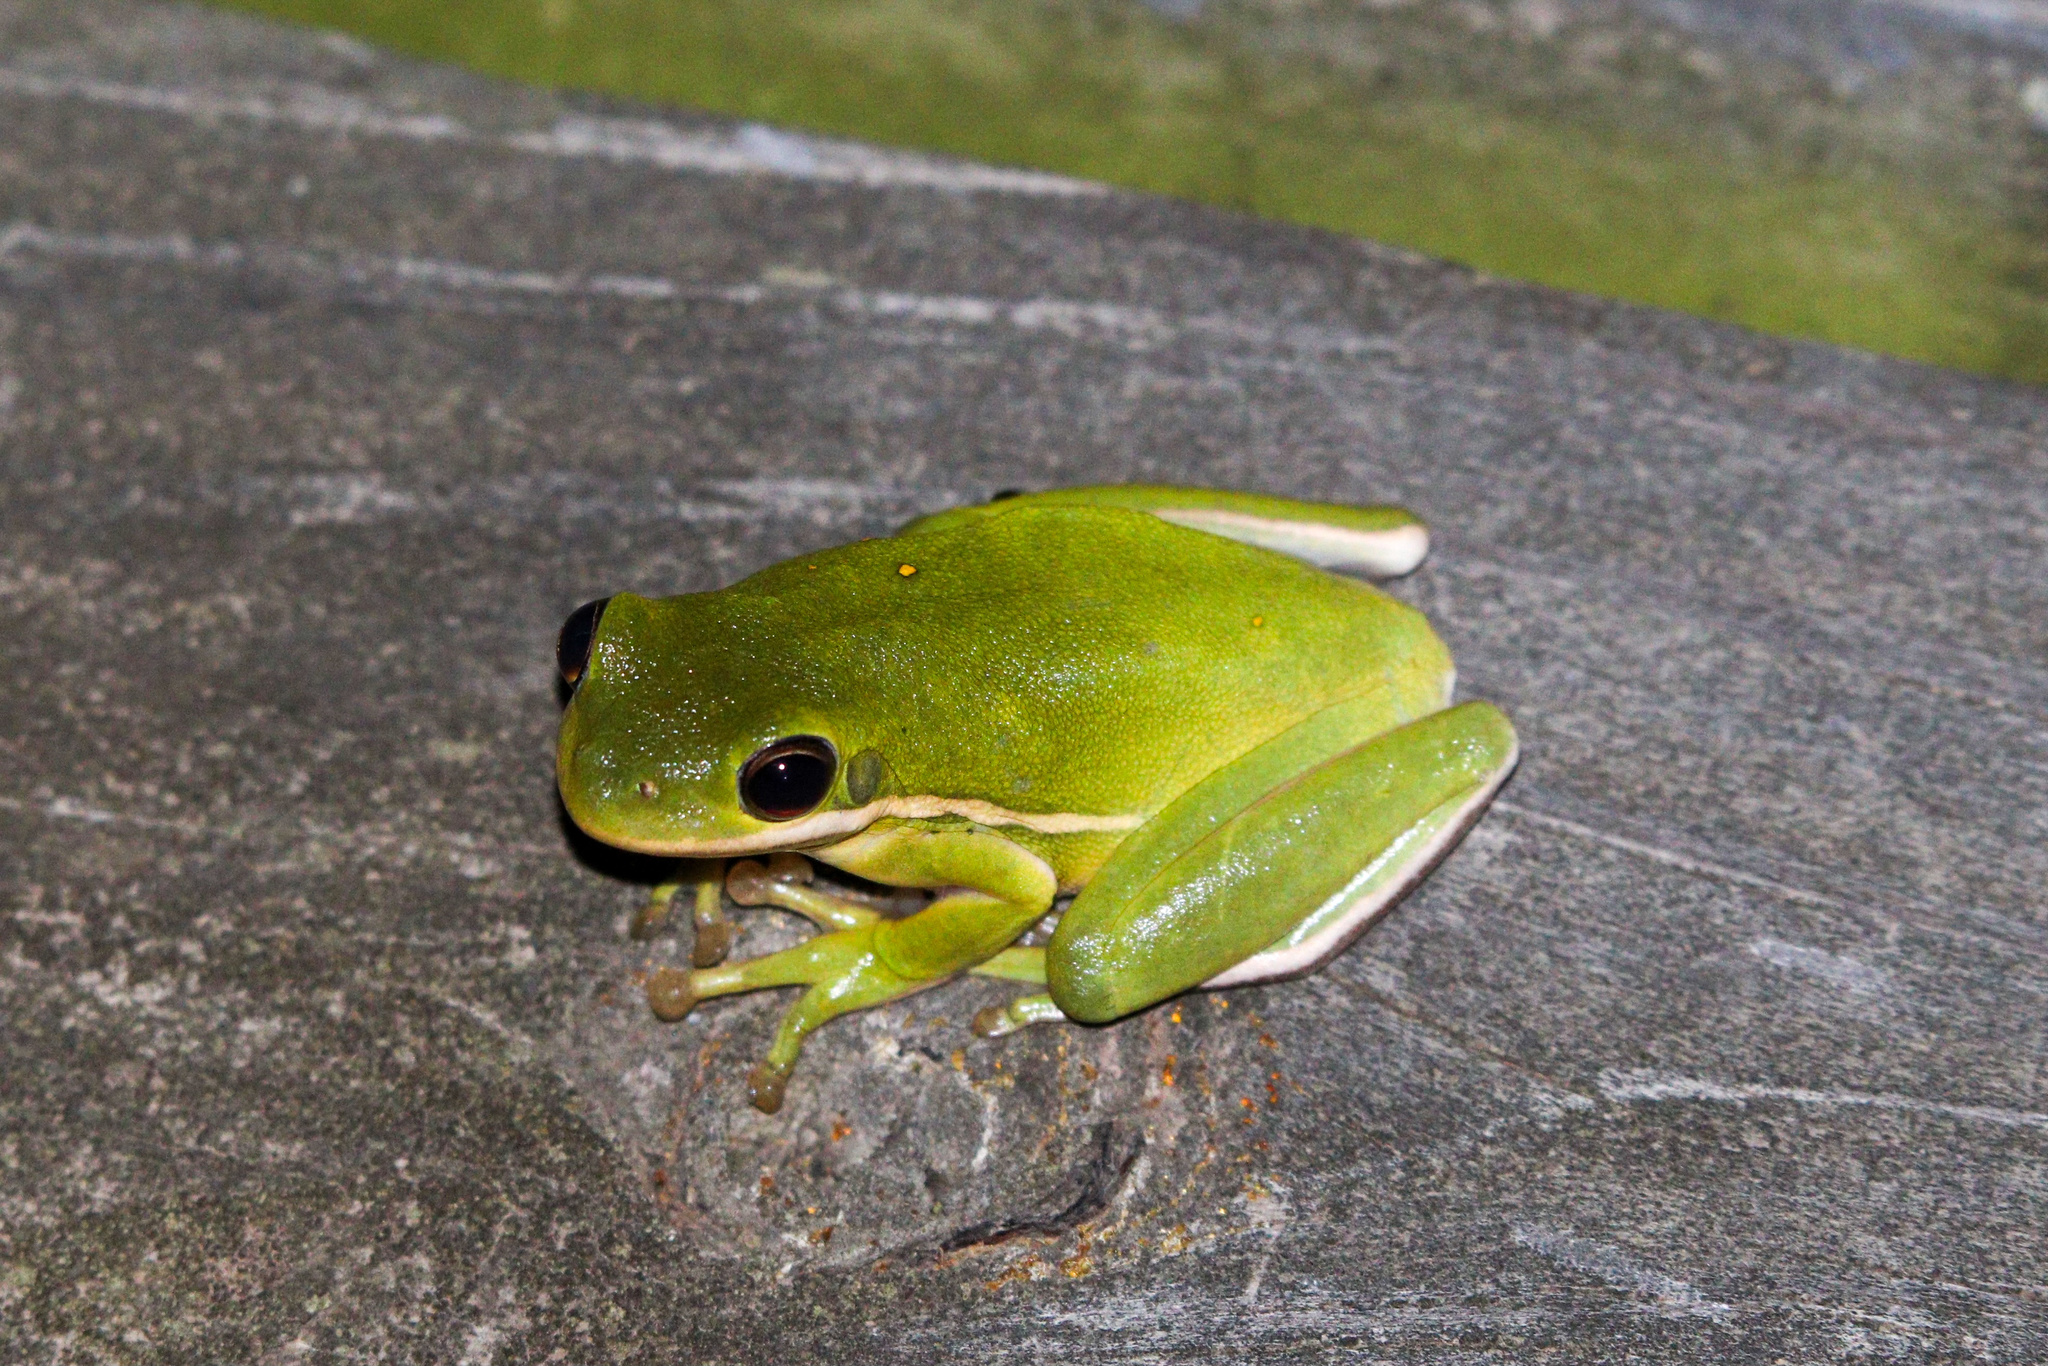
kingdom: Animalia
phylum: Chordata
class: Amphibia
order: Anura
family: Hylidae
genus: Dryophytes
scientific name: Dryophytes cinereus
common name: Green treefrog
